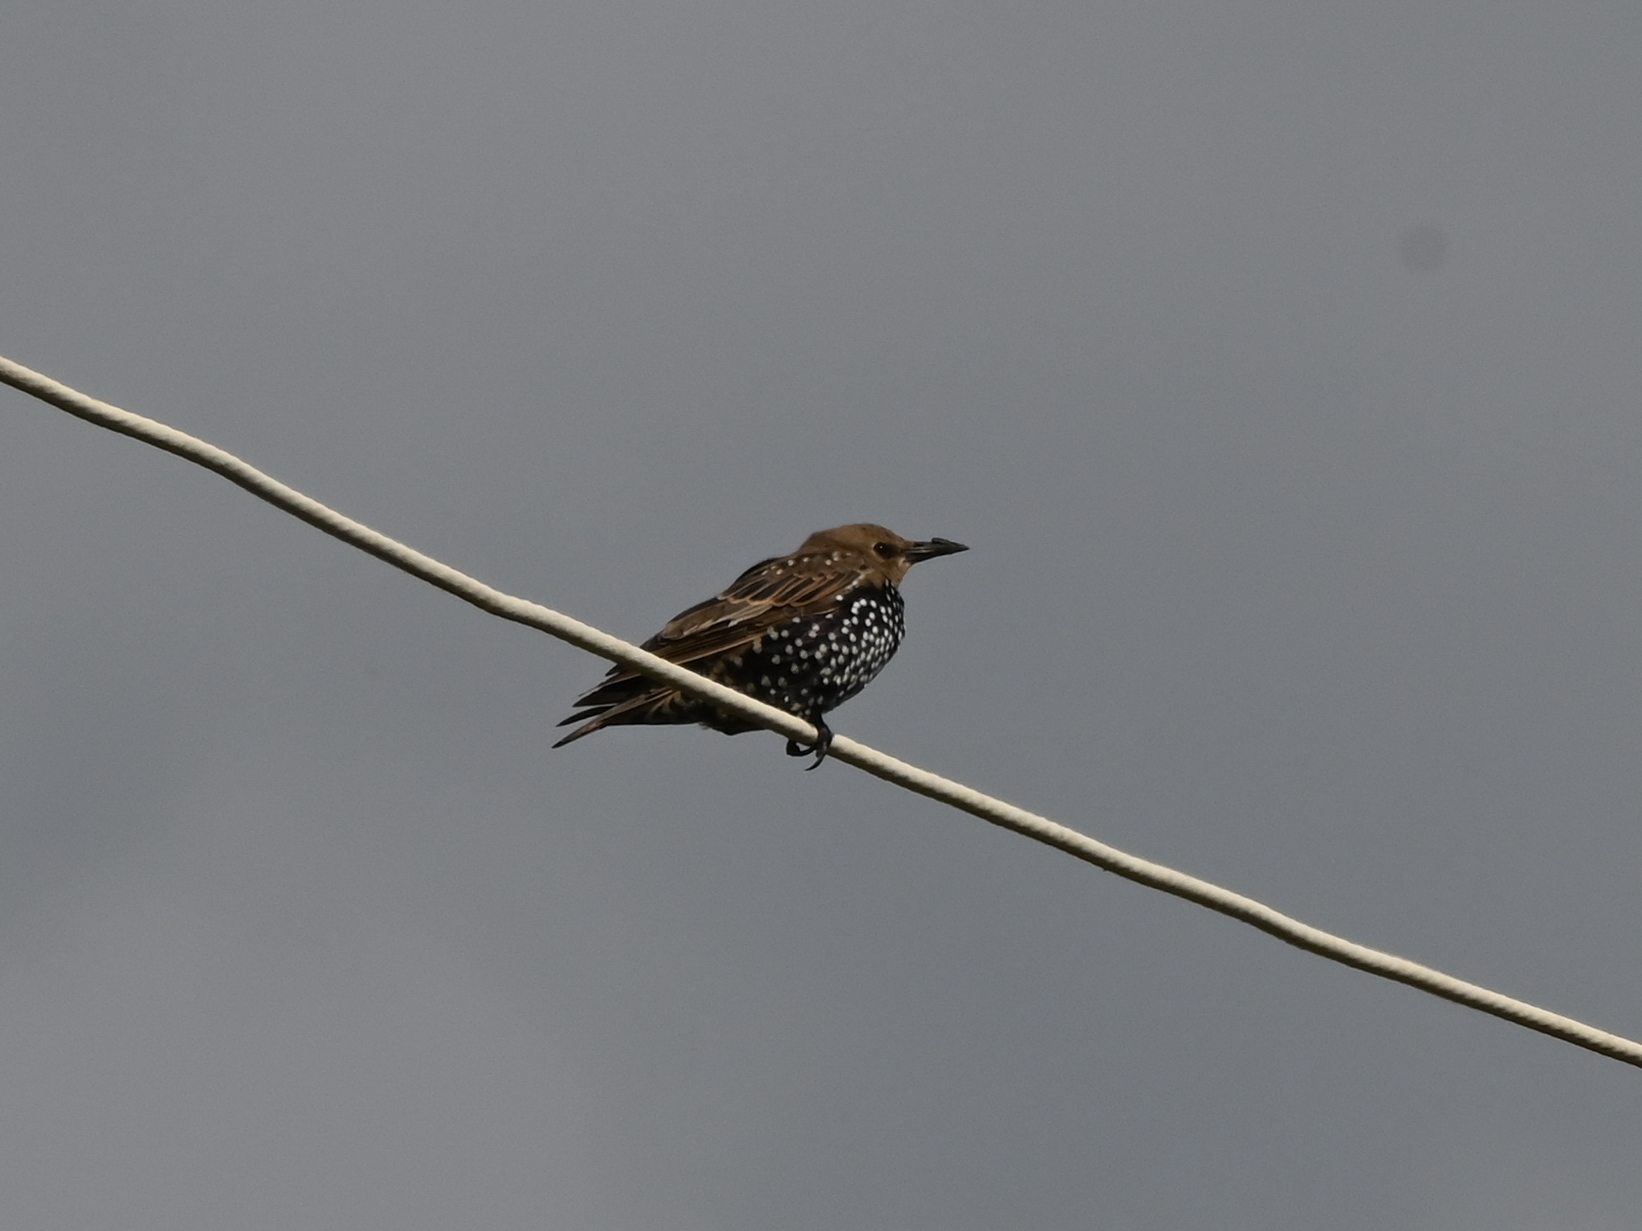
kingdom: Animalia
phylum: Chordata
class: Aves
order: Passeriformes
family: Sturnidae
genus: Sturnus
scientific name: Sturnus vulgaris
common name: Common starling
